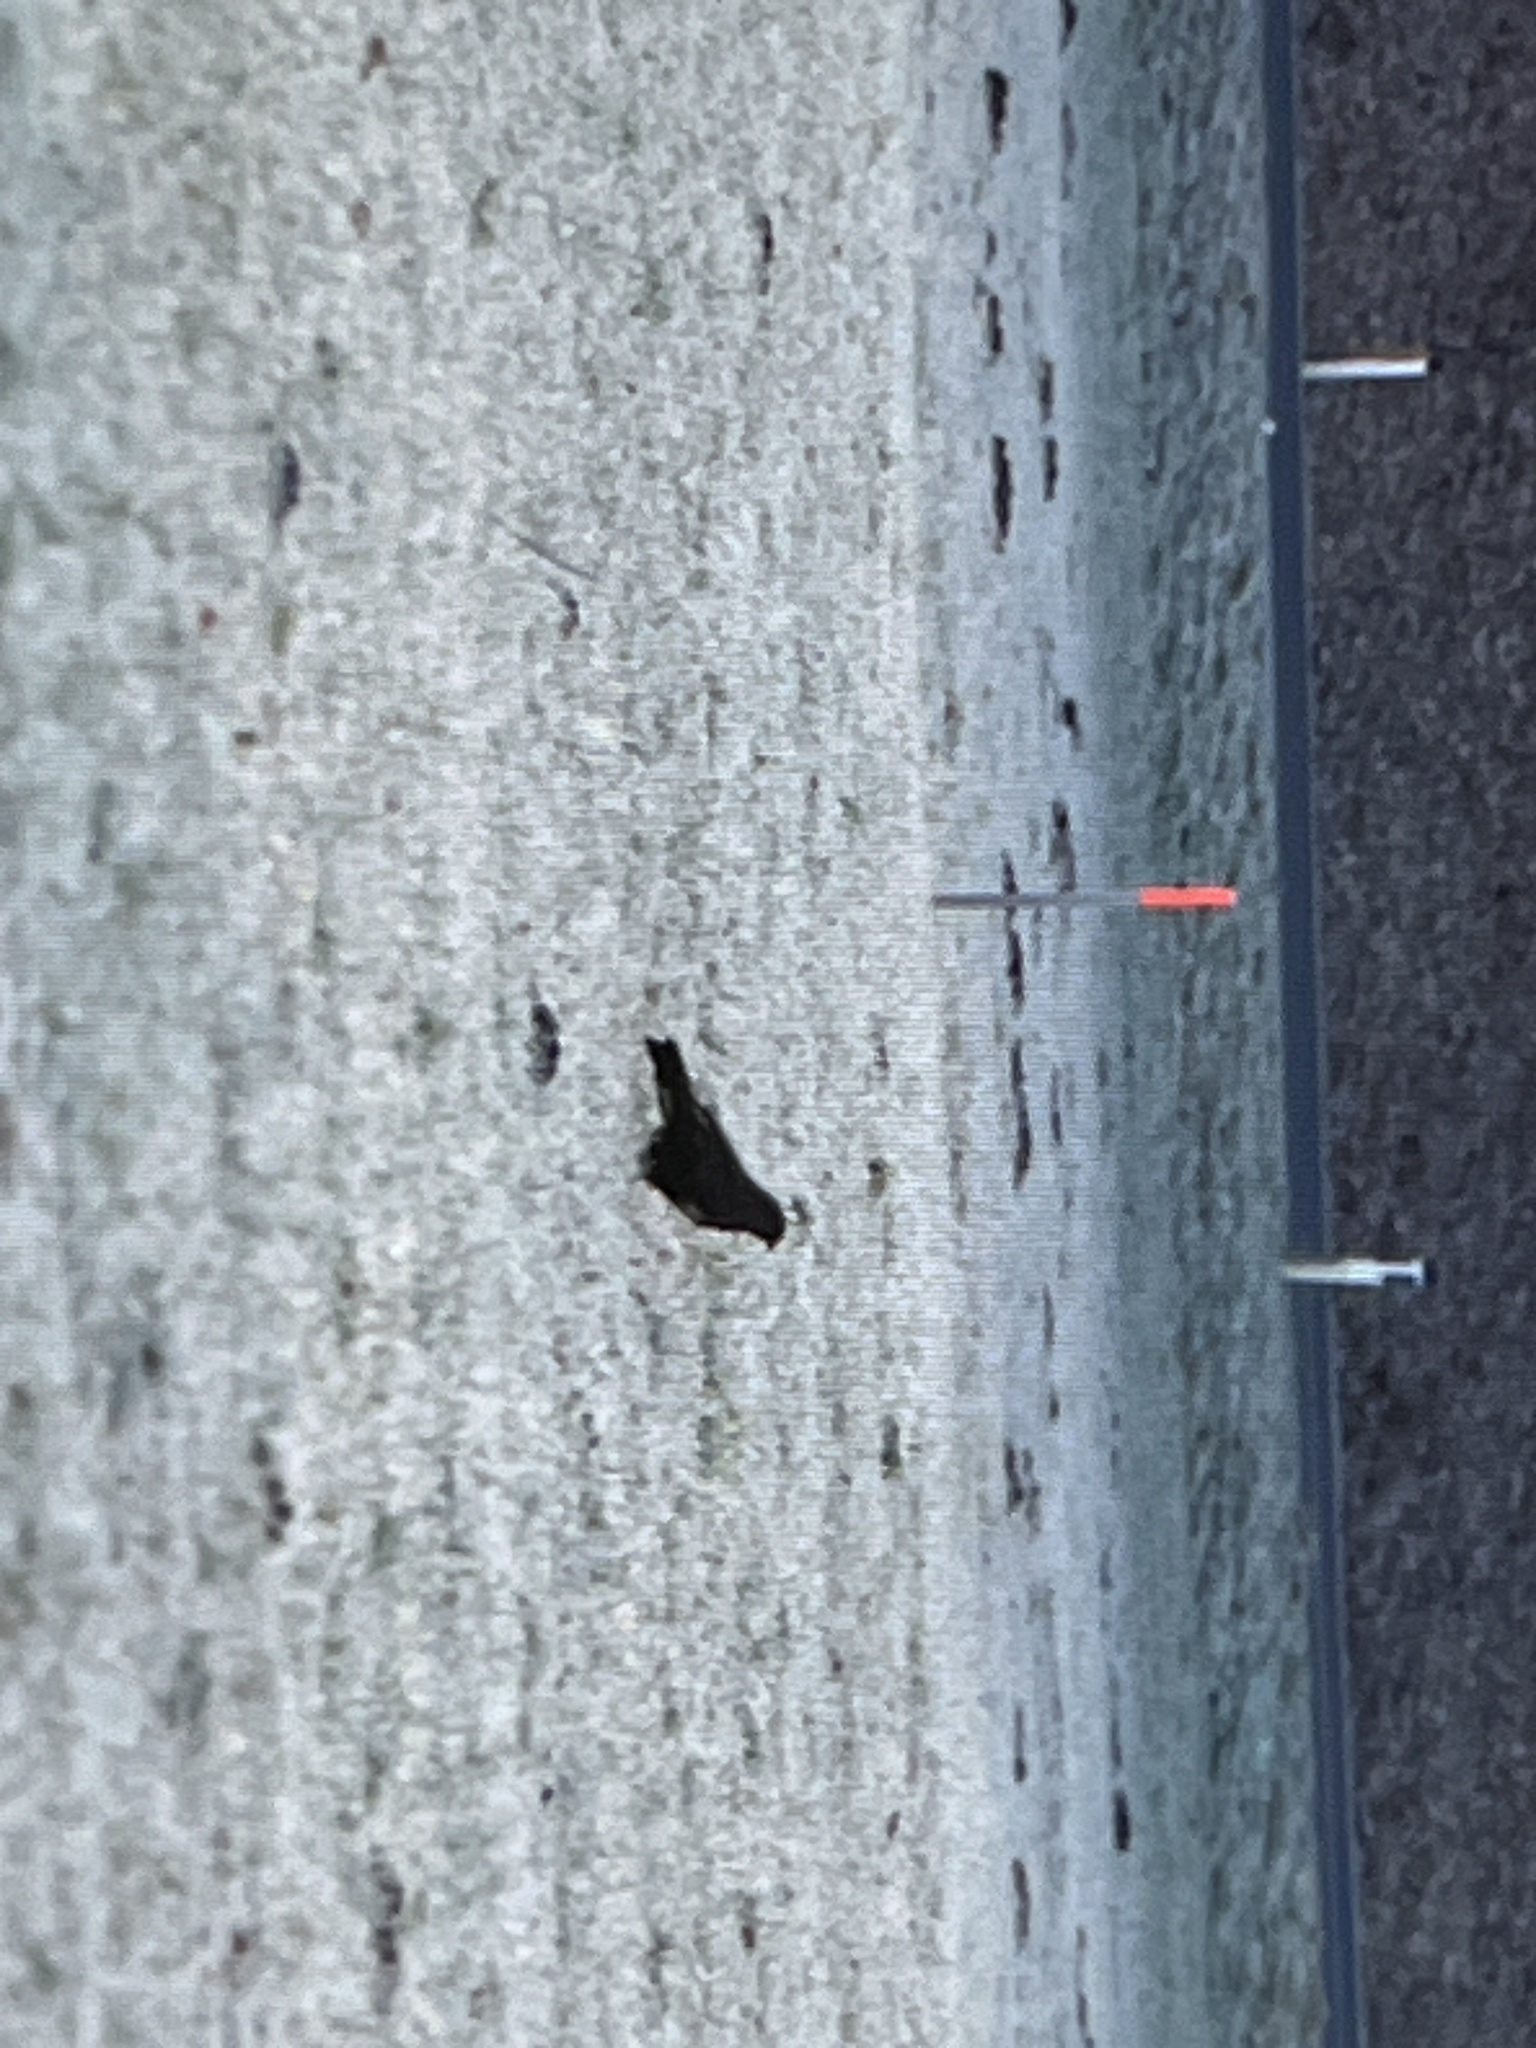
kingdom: Animalia
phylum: Chordata
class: Aves
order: Accipitriformes
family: Accipitridae
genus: Buteo
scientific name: Buteo buteo
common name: Common buzzard
